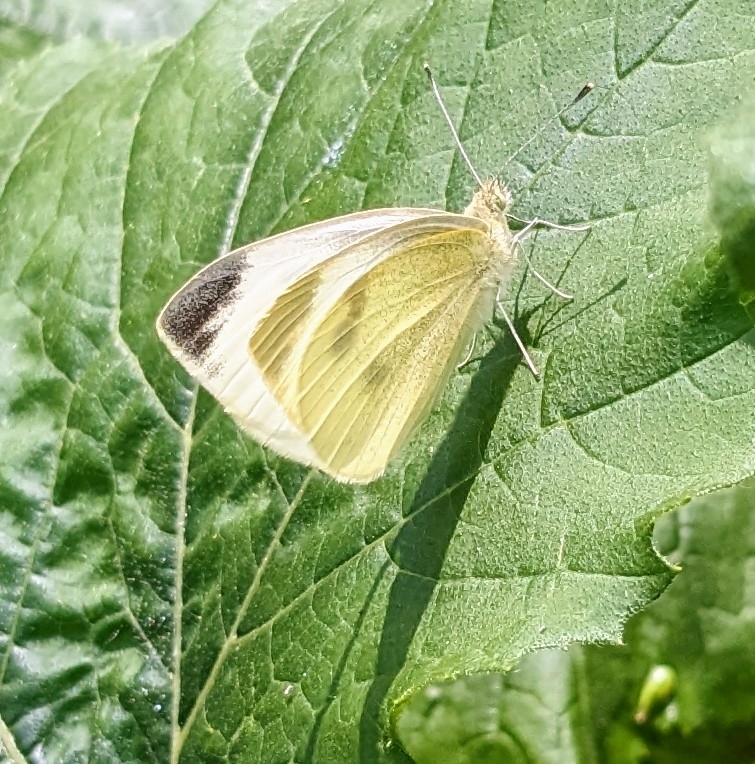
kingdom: Animalia
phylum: Arthropoda
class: Insecta
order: Lepidoptera
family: Pieridae
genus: Pieris
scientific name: Pieris rapae
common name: Small white
